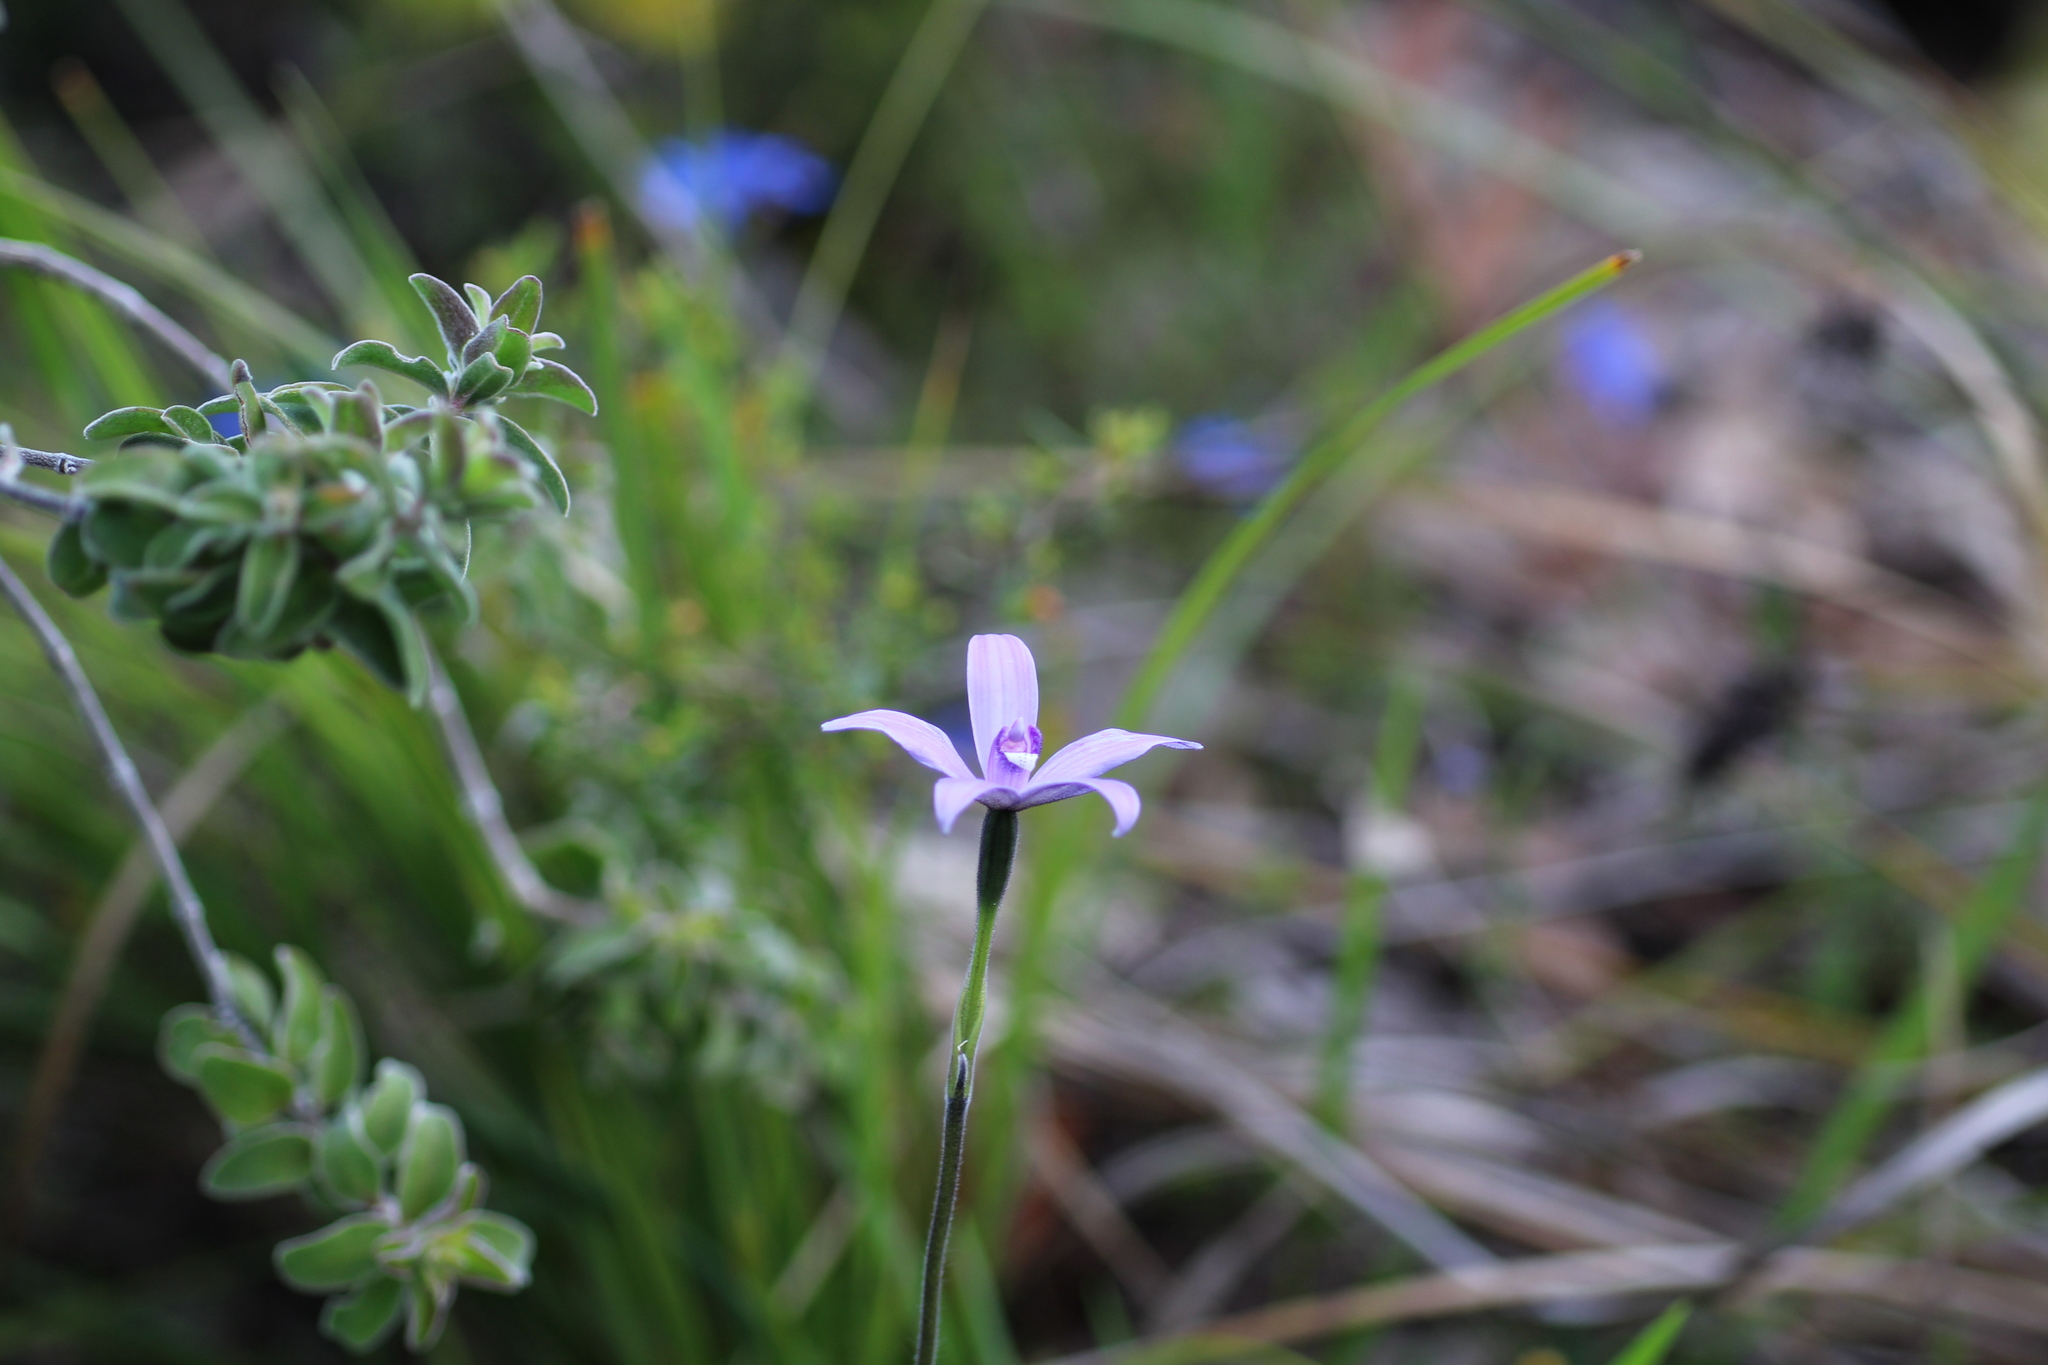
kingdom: Plantae
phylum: Tracheophyta
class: Liliopsida
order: Asparagales
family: Orchidaceae
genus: Caladenia
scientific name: Caladenia sericea
